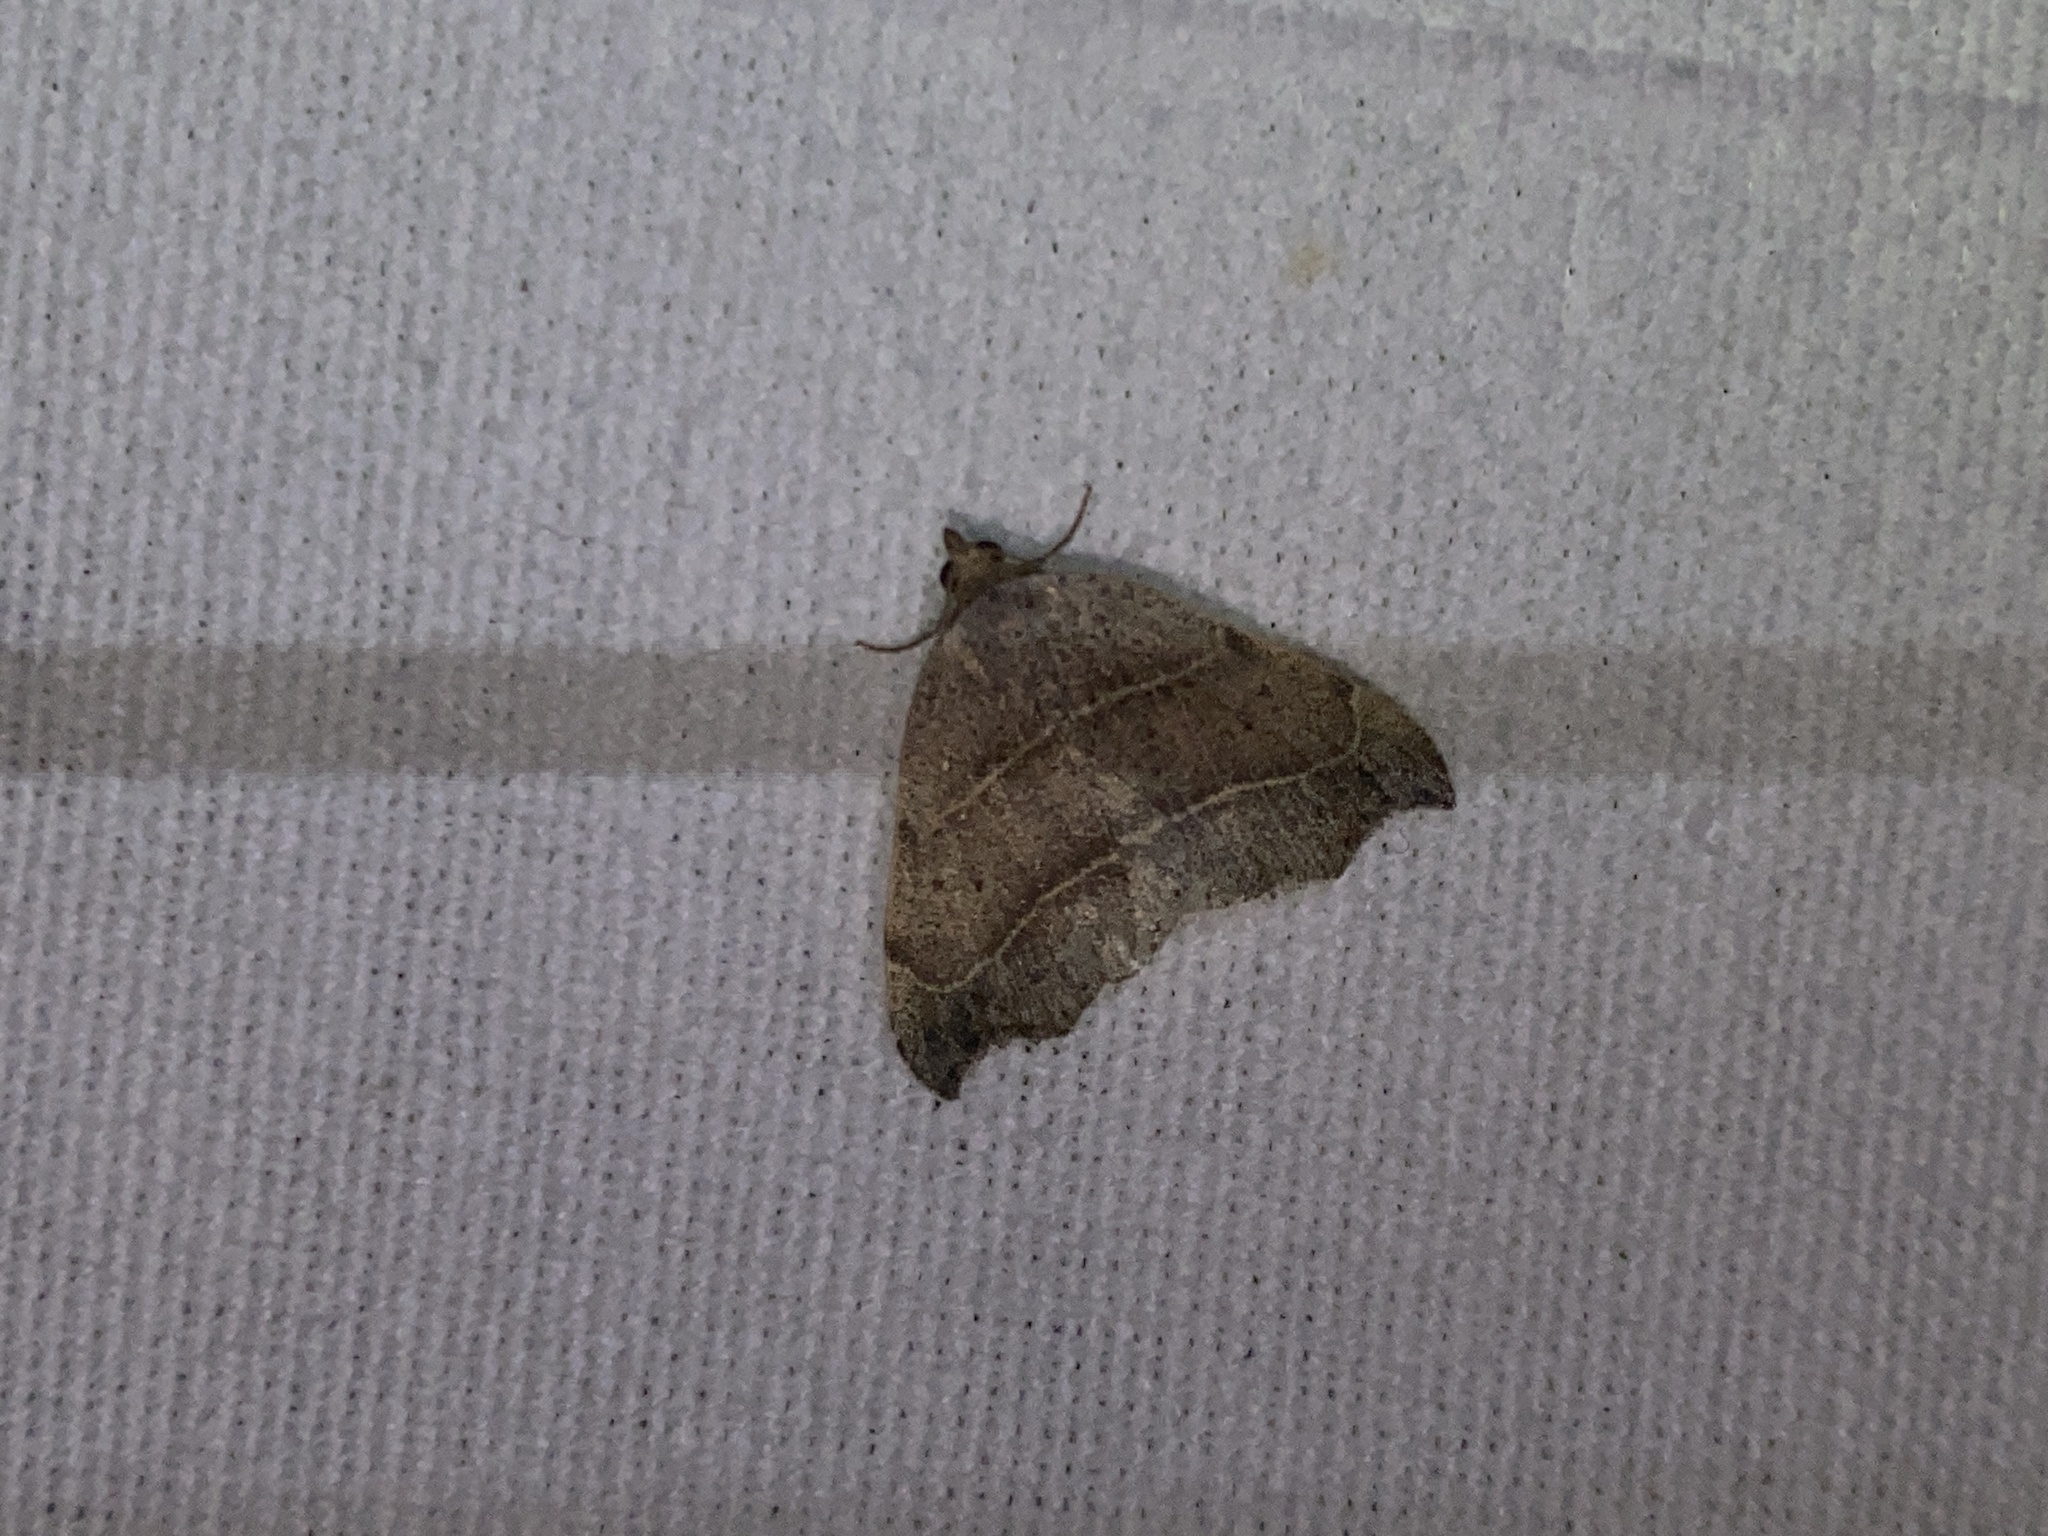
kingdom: Animalia
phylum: Arthropoda
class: Insecta
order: Lepidoptera
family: Erebidae
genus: Laspeyria
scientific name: Laspeyria flexula
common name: Beautiful hook-tip
